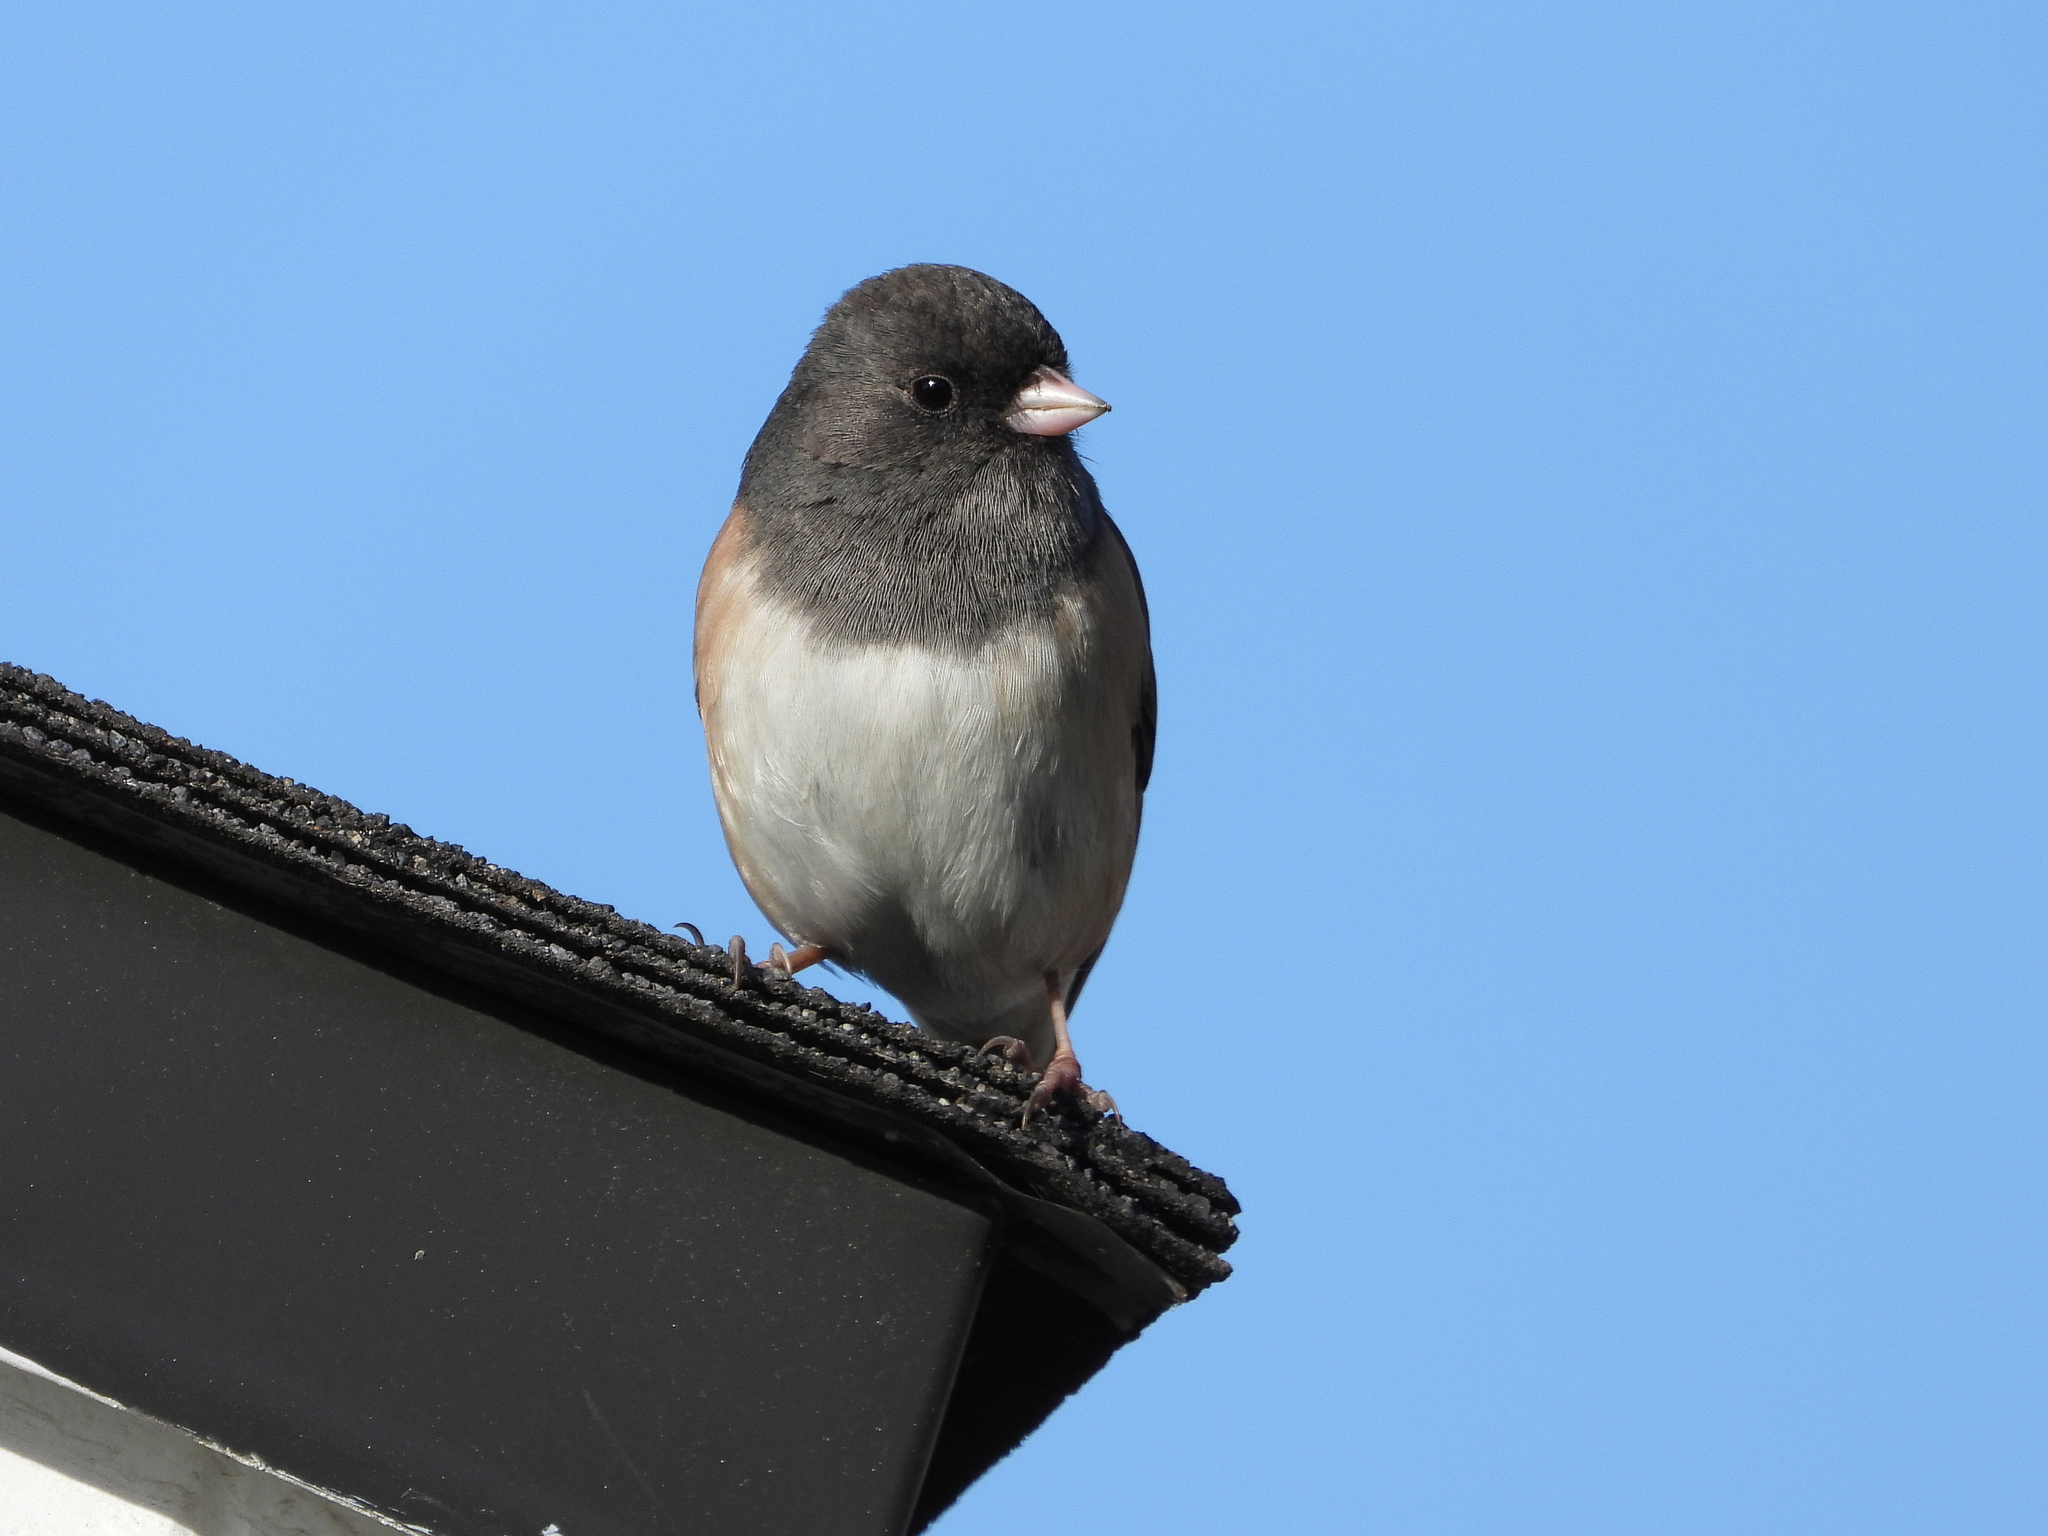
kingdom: Animalia
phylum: Chordata
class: Aves
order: Passeriformes
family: Passerellidae
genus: Junco
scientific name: Junco hyemalis
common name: Dark-eyed junco
